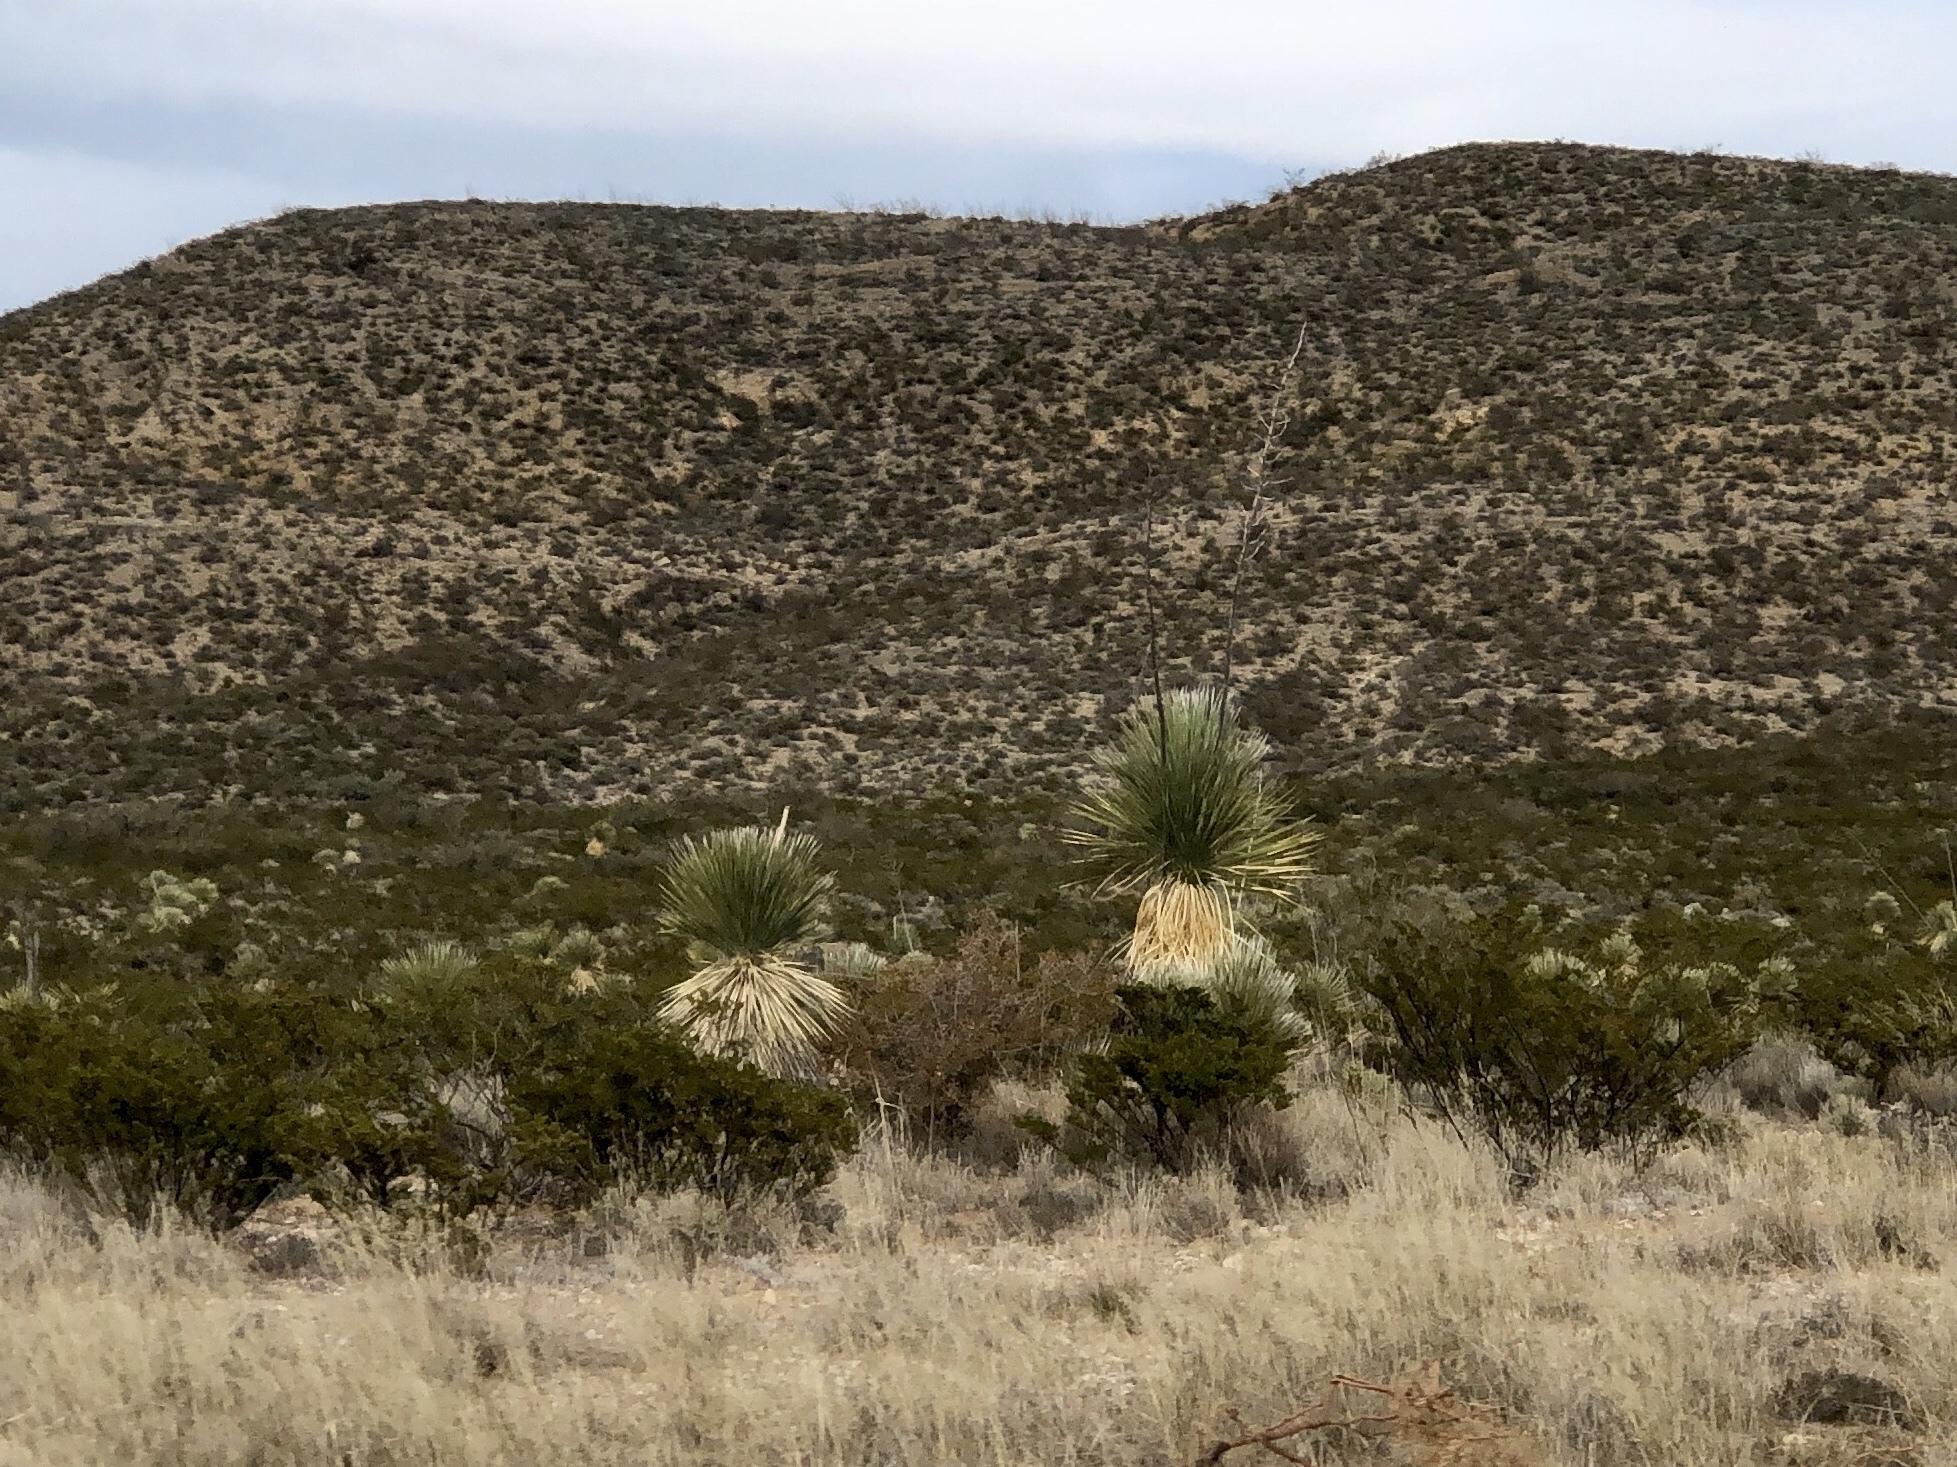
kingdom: Plantae
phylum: Tracheophyta
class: Liliopsida
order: Asparagales
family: Asparagaceae
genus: Yucca
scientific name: Yucca elata
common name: Palmella
